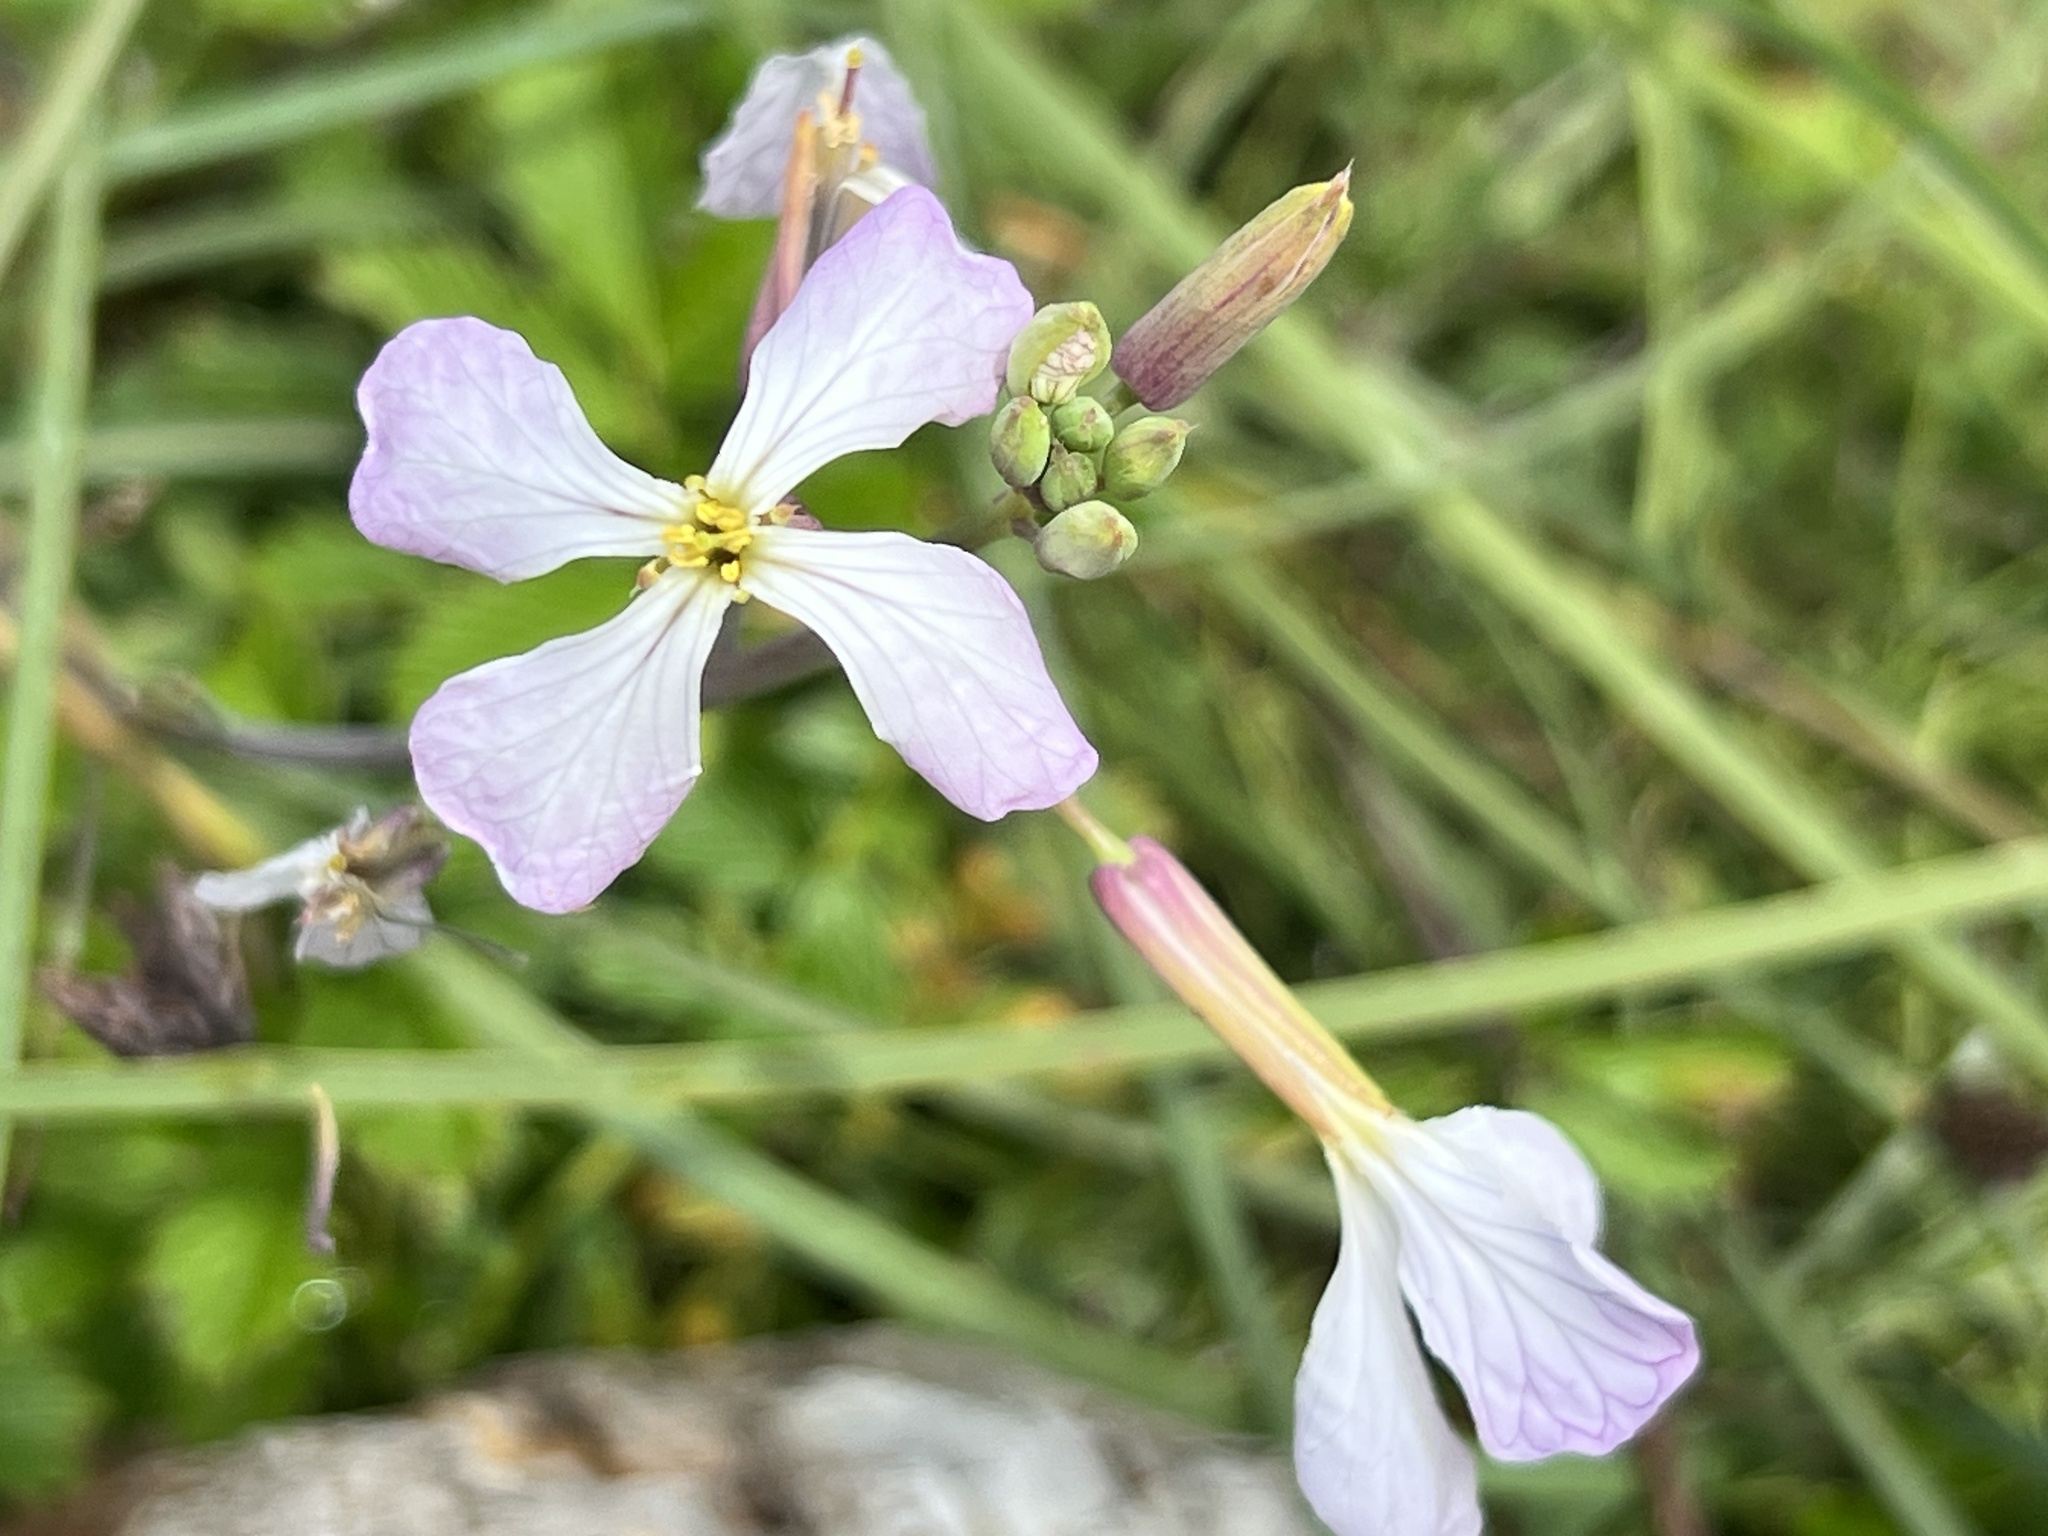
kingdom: Plantae
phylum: Tracheophyta
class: Magnoliopsida
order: Brassicales
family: Brassicaceae
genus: Raphanus
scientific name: Raphanus sativus
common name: Cultivated radish
